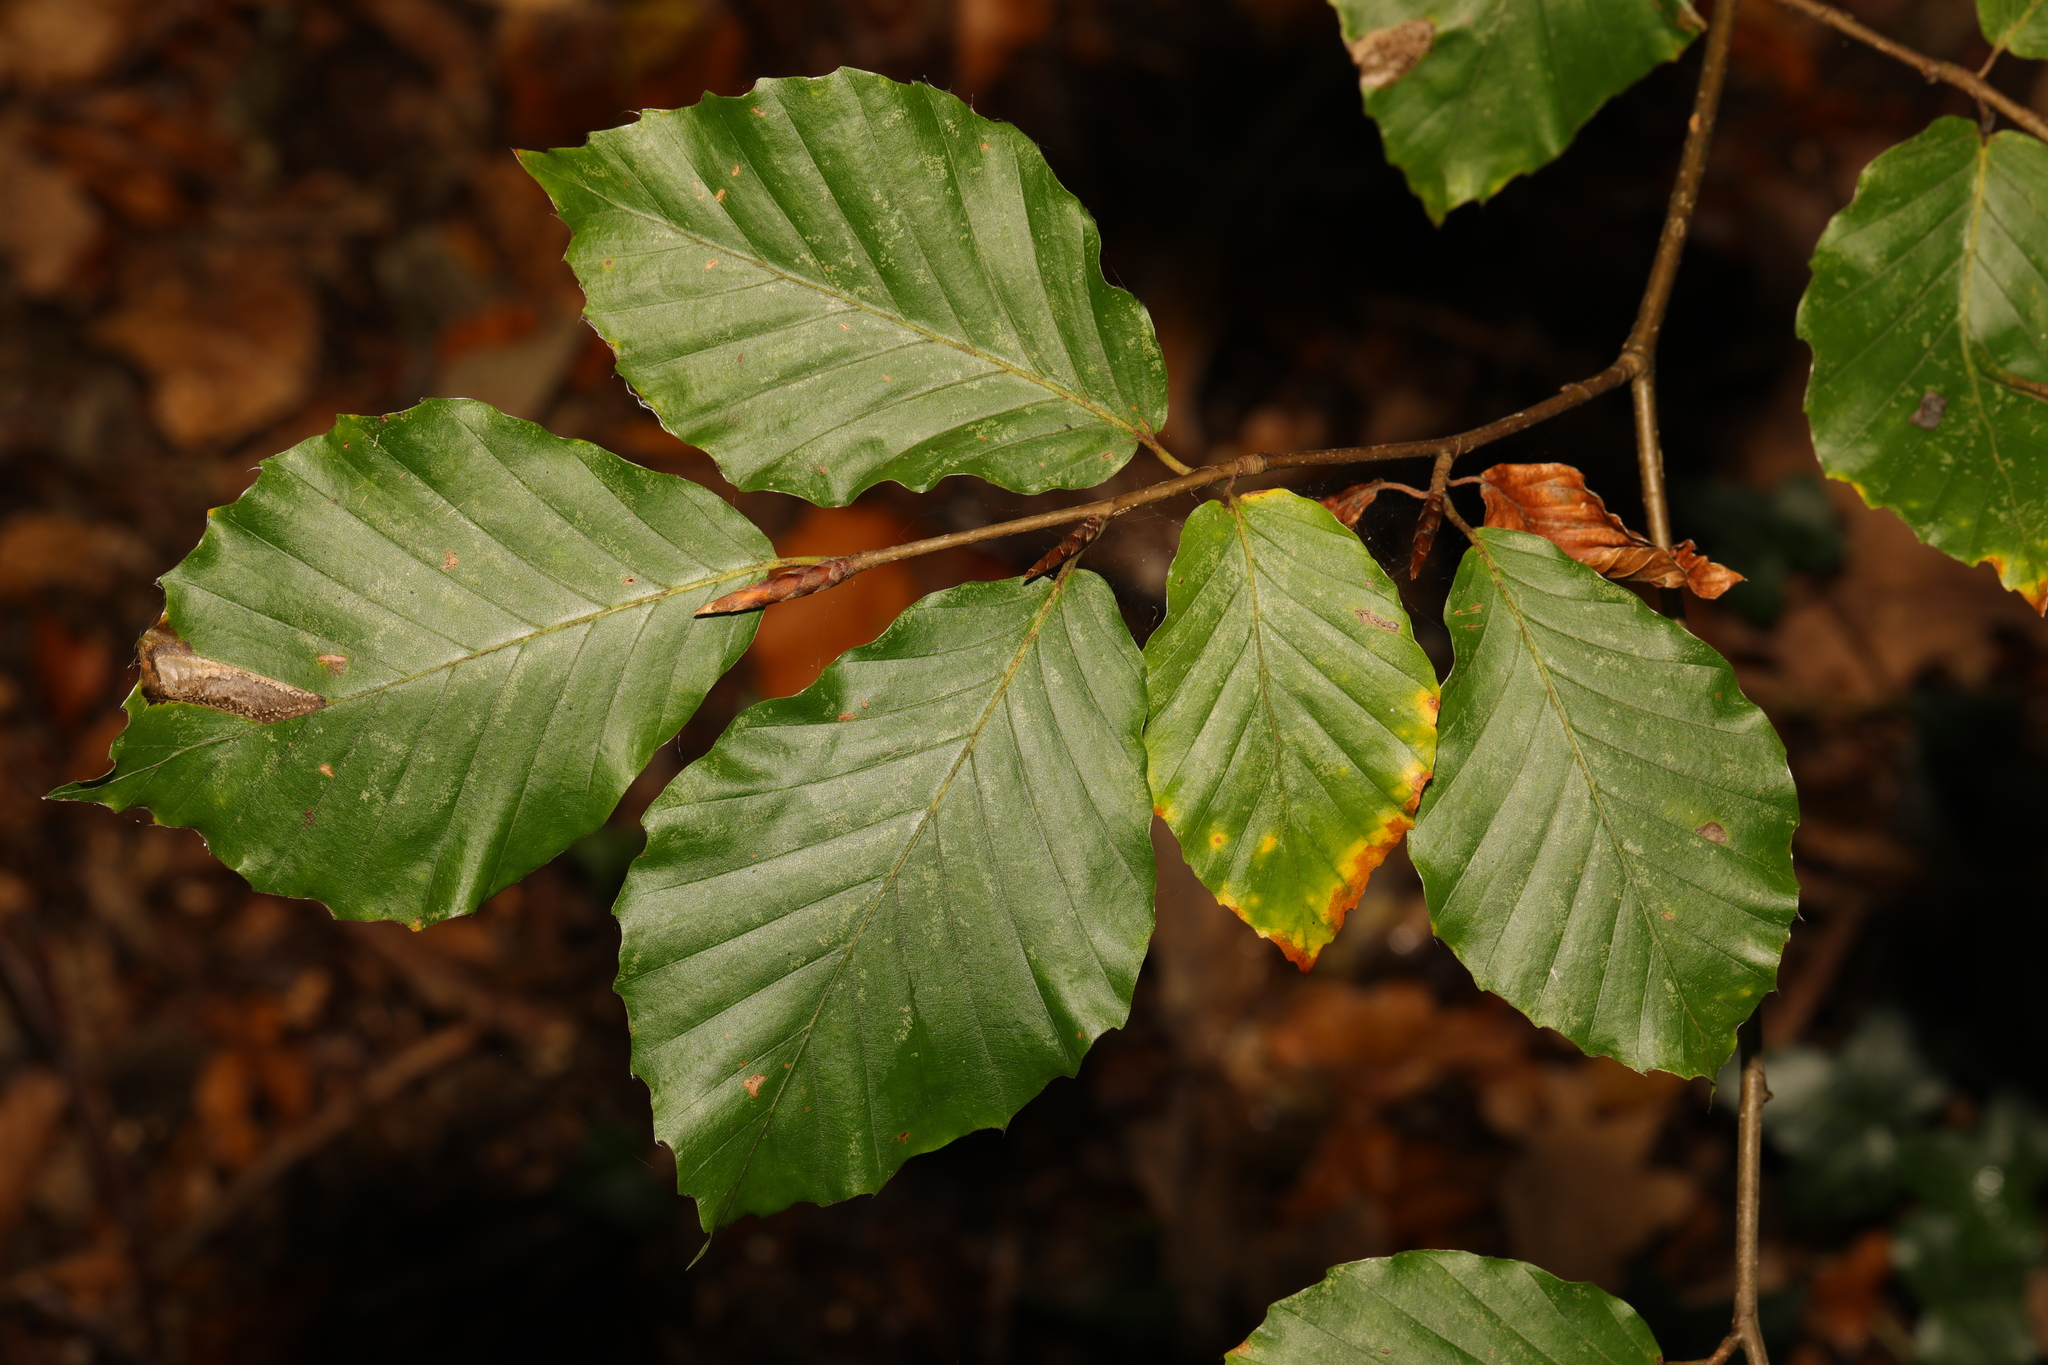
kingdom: Plantae
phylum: Tracheophyta
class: Magnoliopsida
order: Fagales
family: Fagaceae
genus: Fagus
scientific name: Fagus sylvatica
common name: Beech
